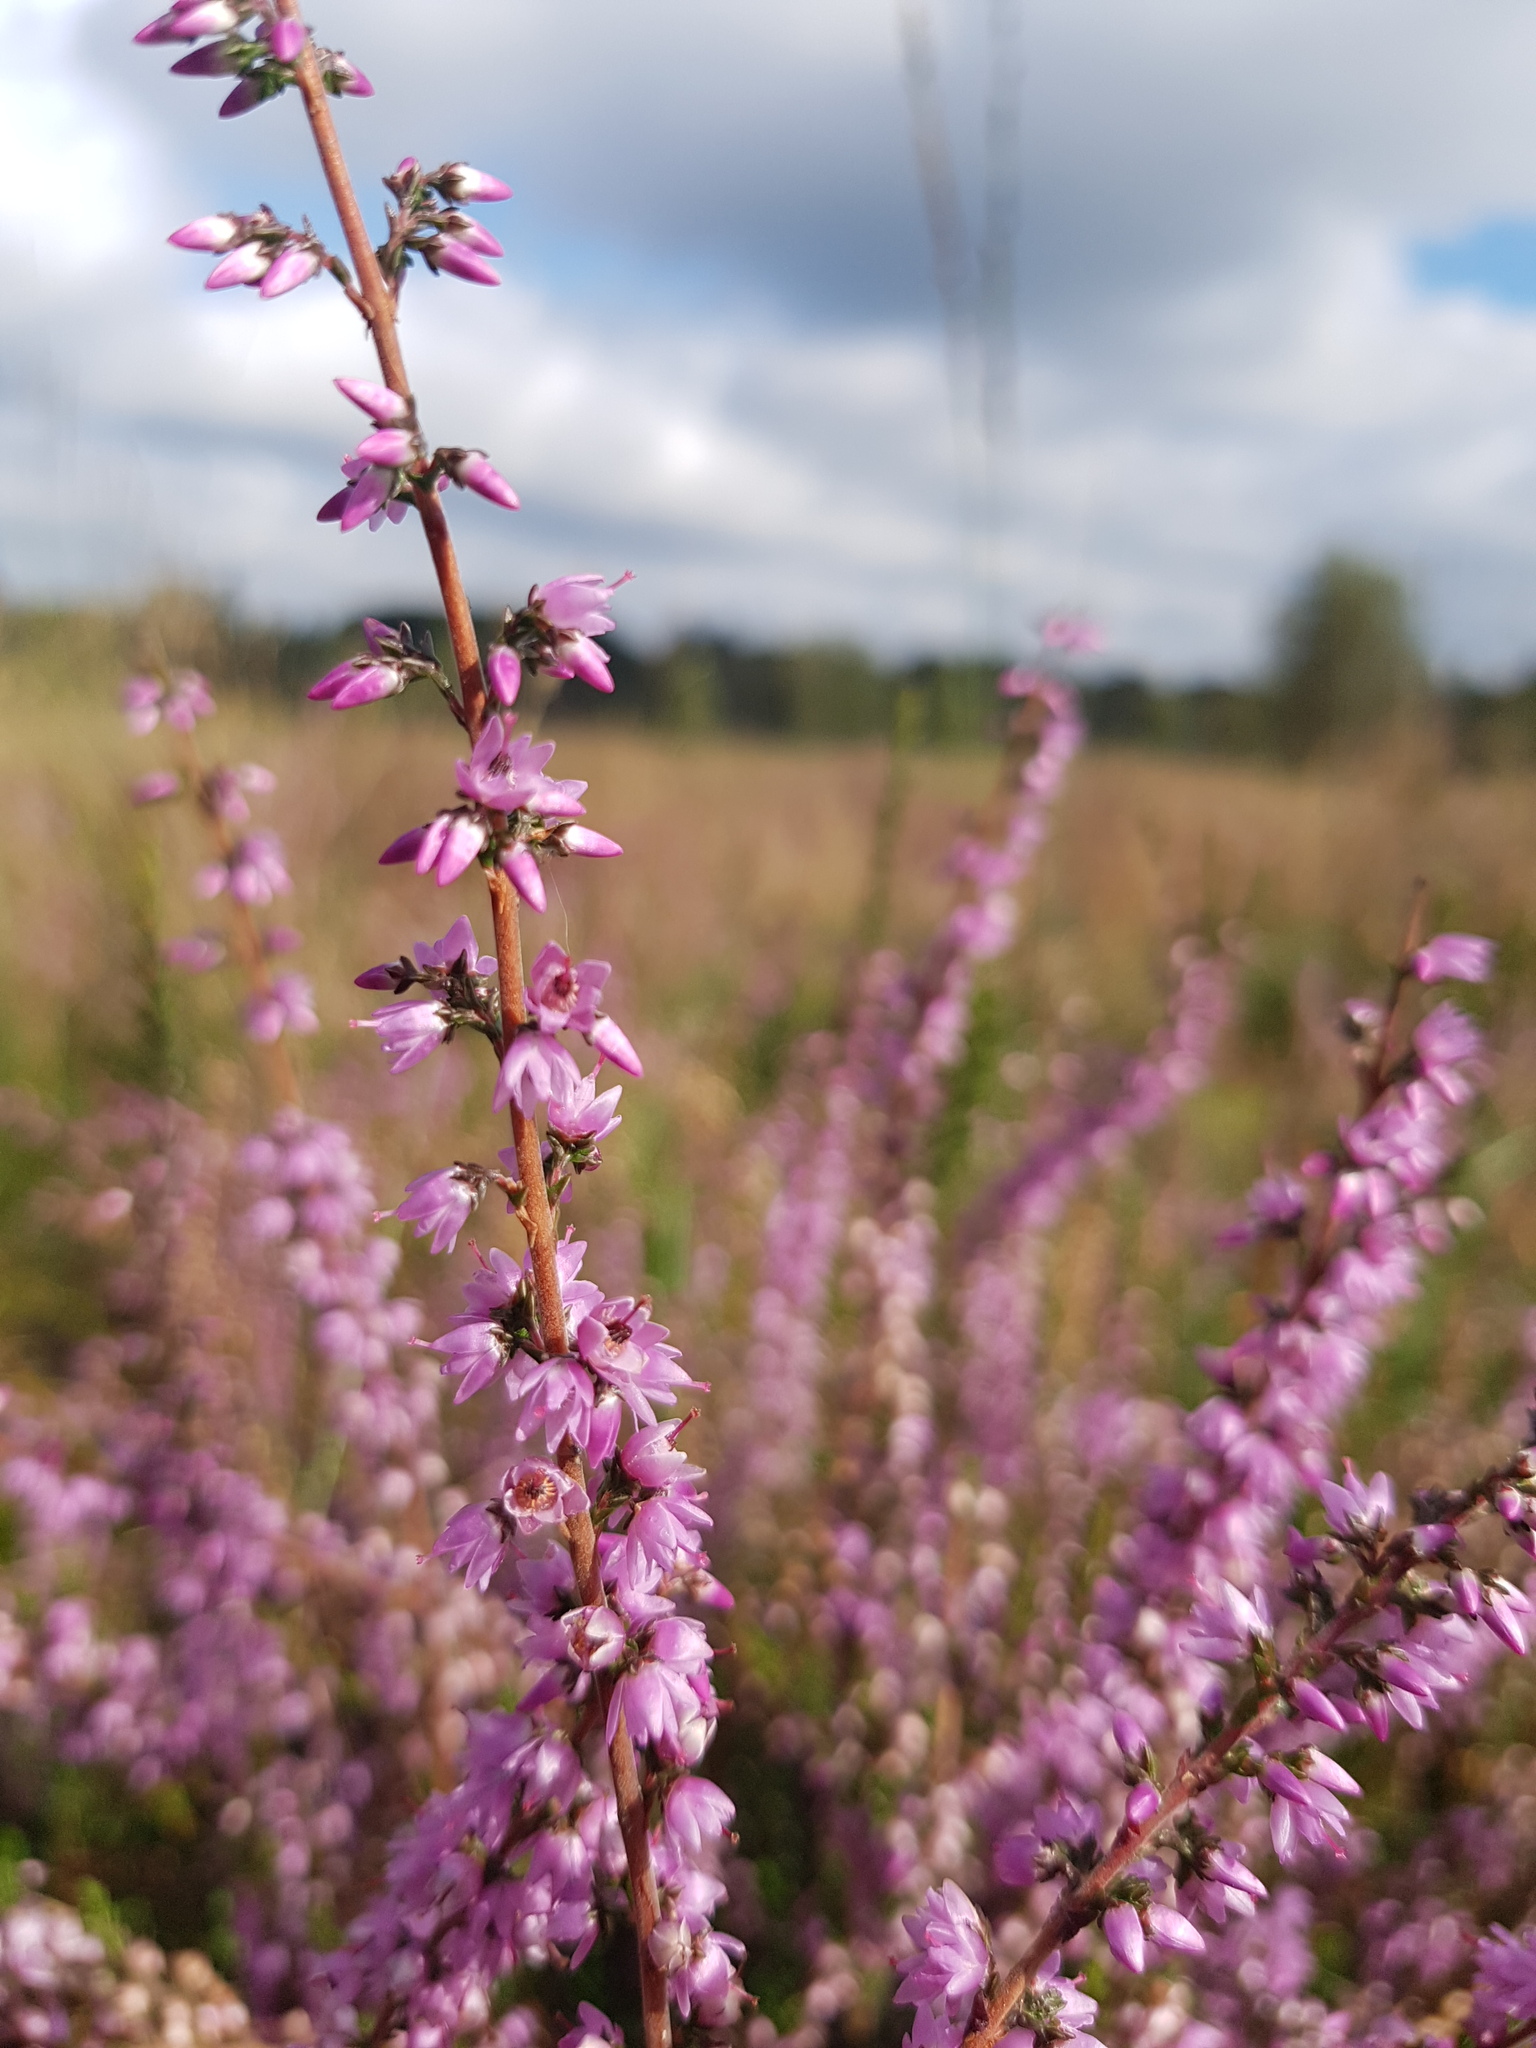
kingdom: Plantae
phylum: Tracheophyta
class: Magnoliopsida
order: Ericales
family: Ericaceae
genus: Calluna
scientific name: Calluna vulgaris
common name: Heather
